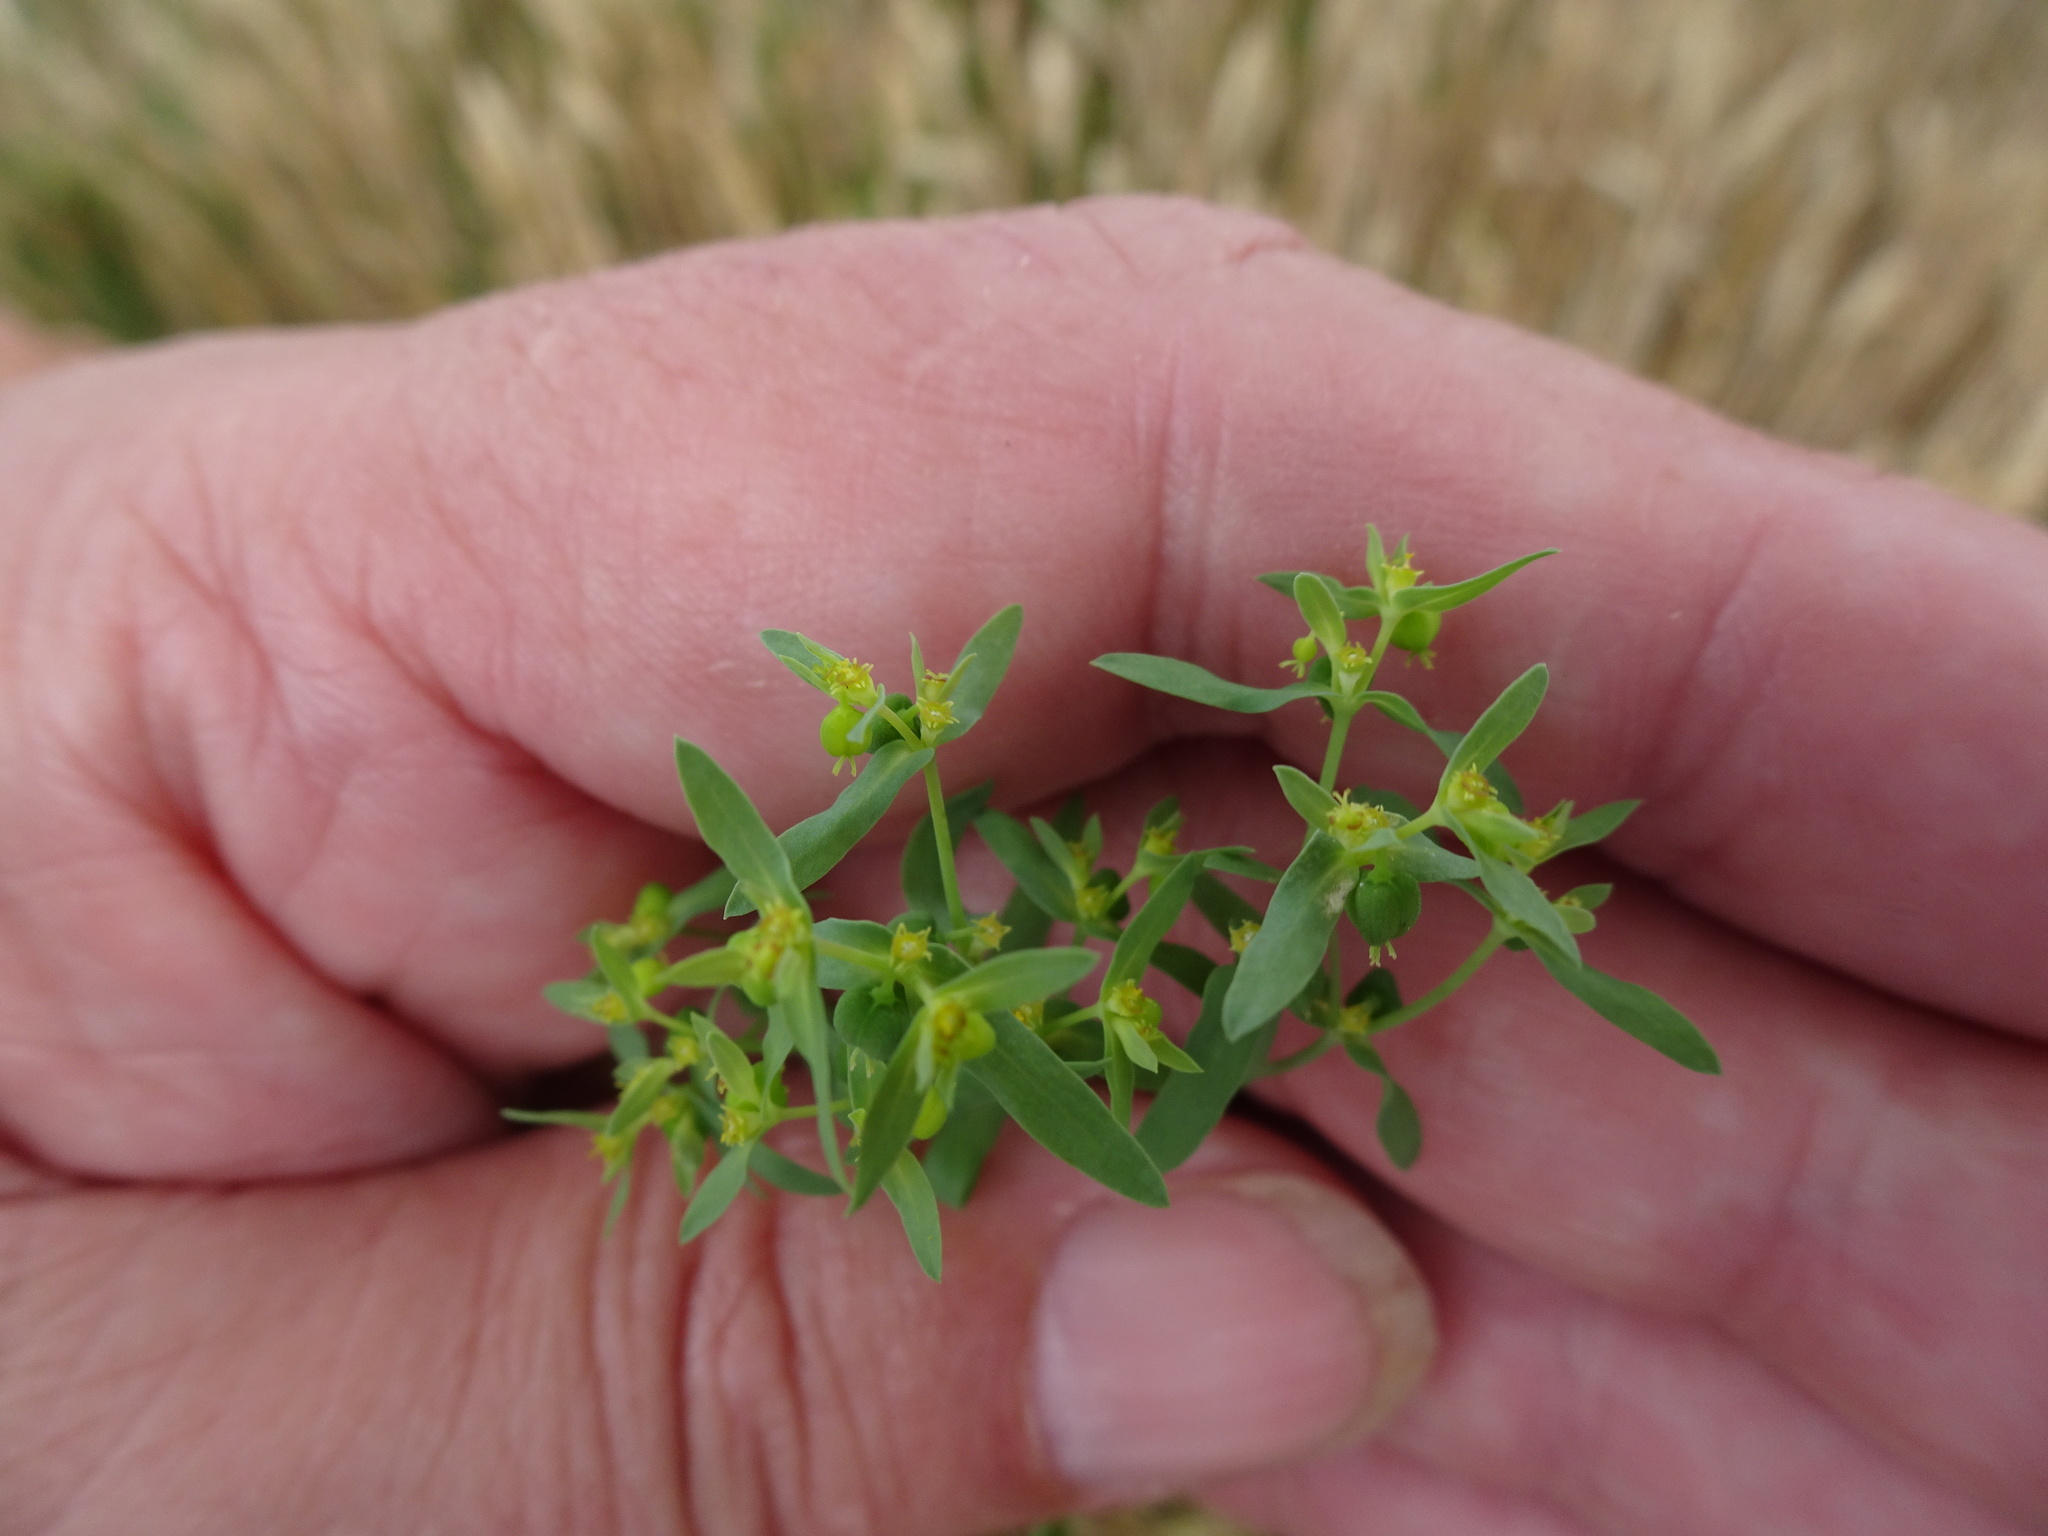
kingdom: Plantae
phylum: Tracheophyta
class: Magnoliopsida
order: Malpighiales
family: Euphorbiaceae
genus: Euphorbia
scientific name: Euphorbia exigua
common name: Dwarf spurge
